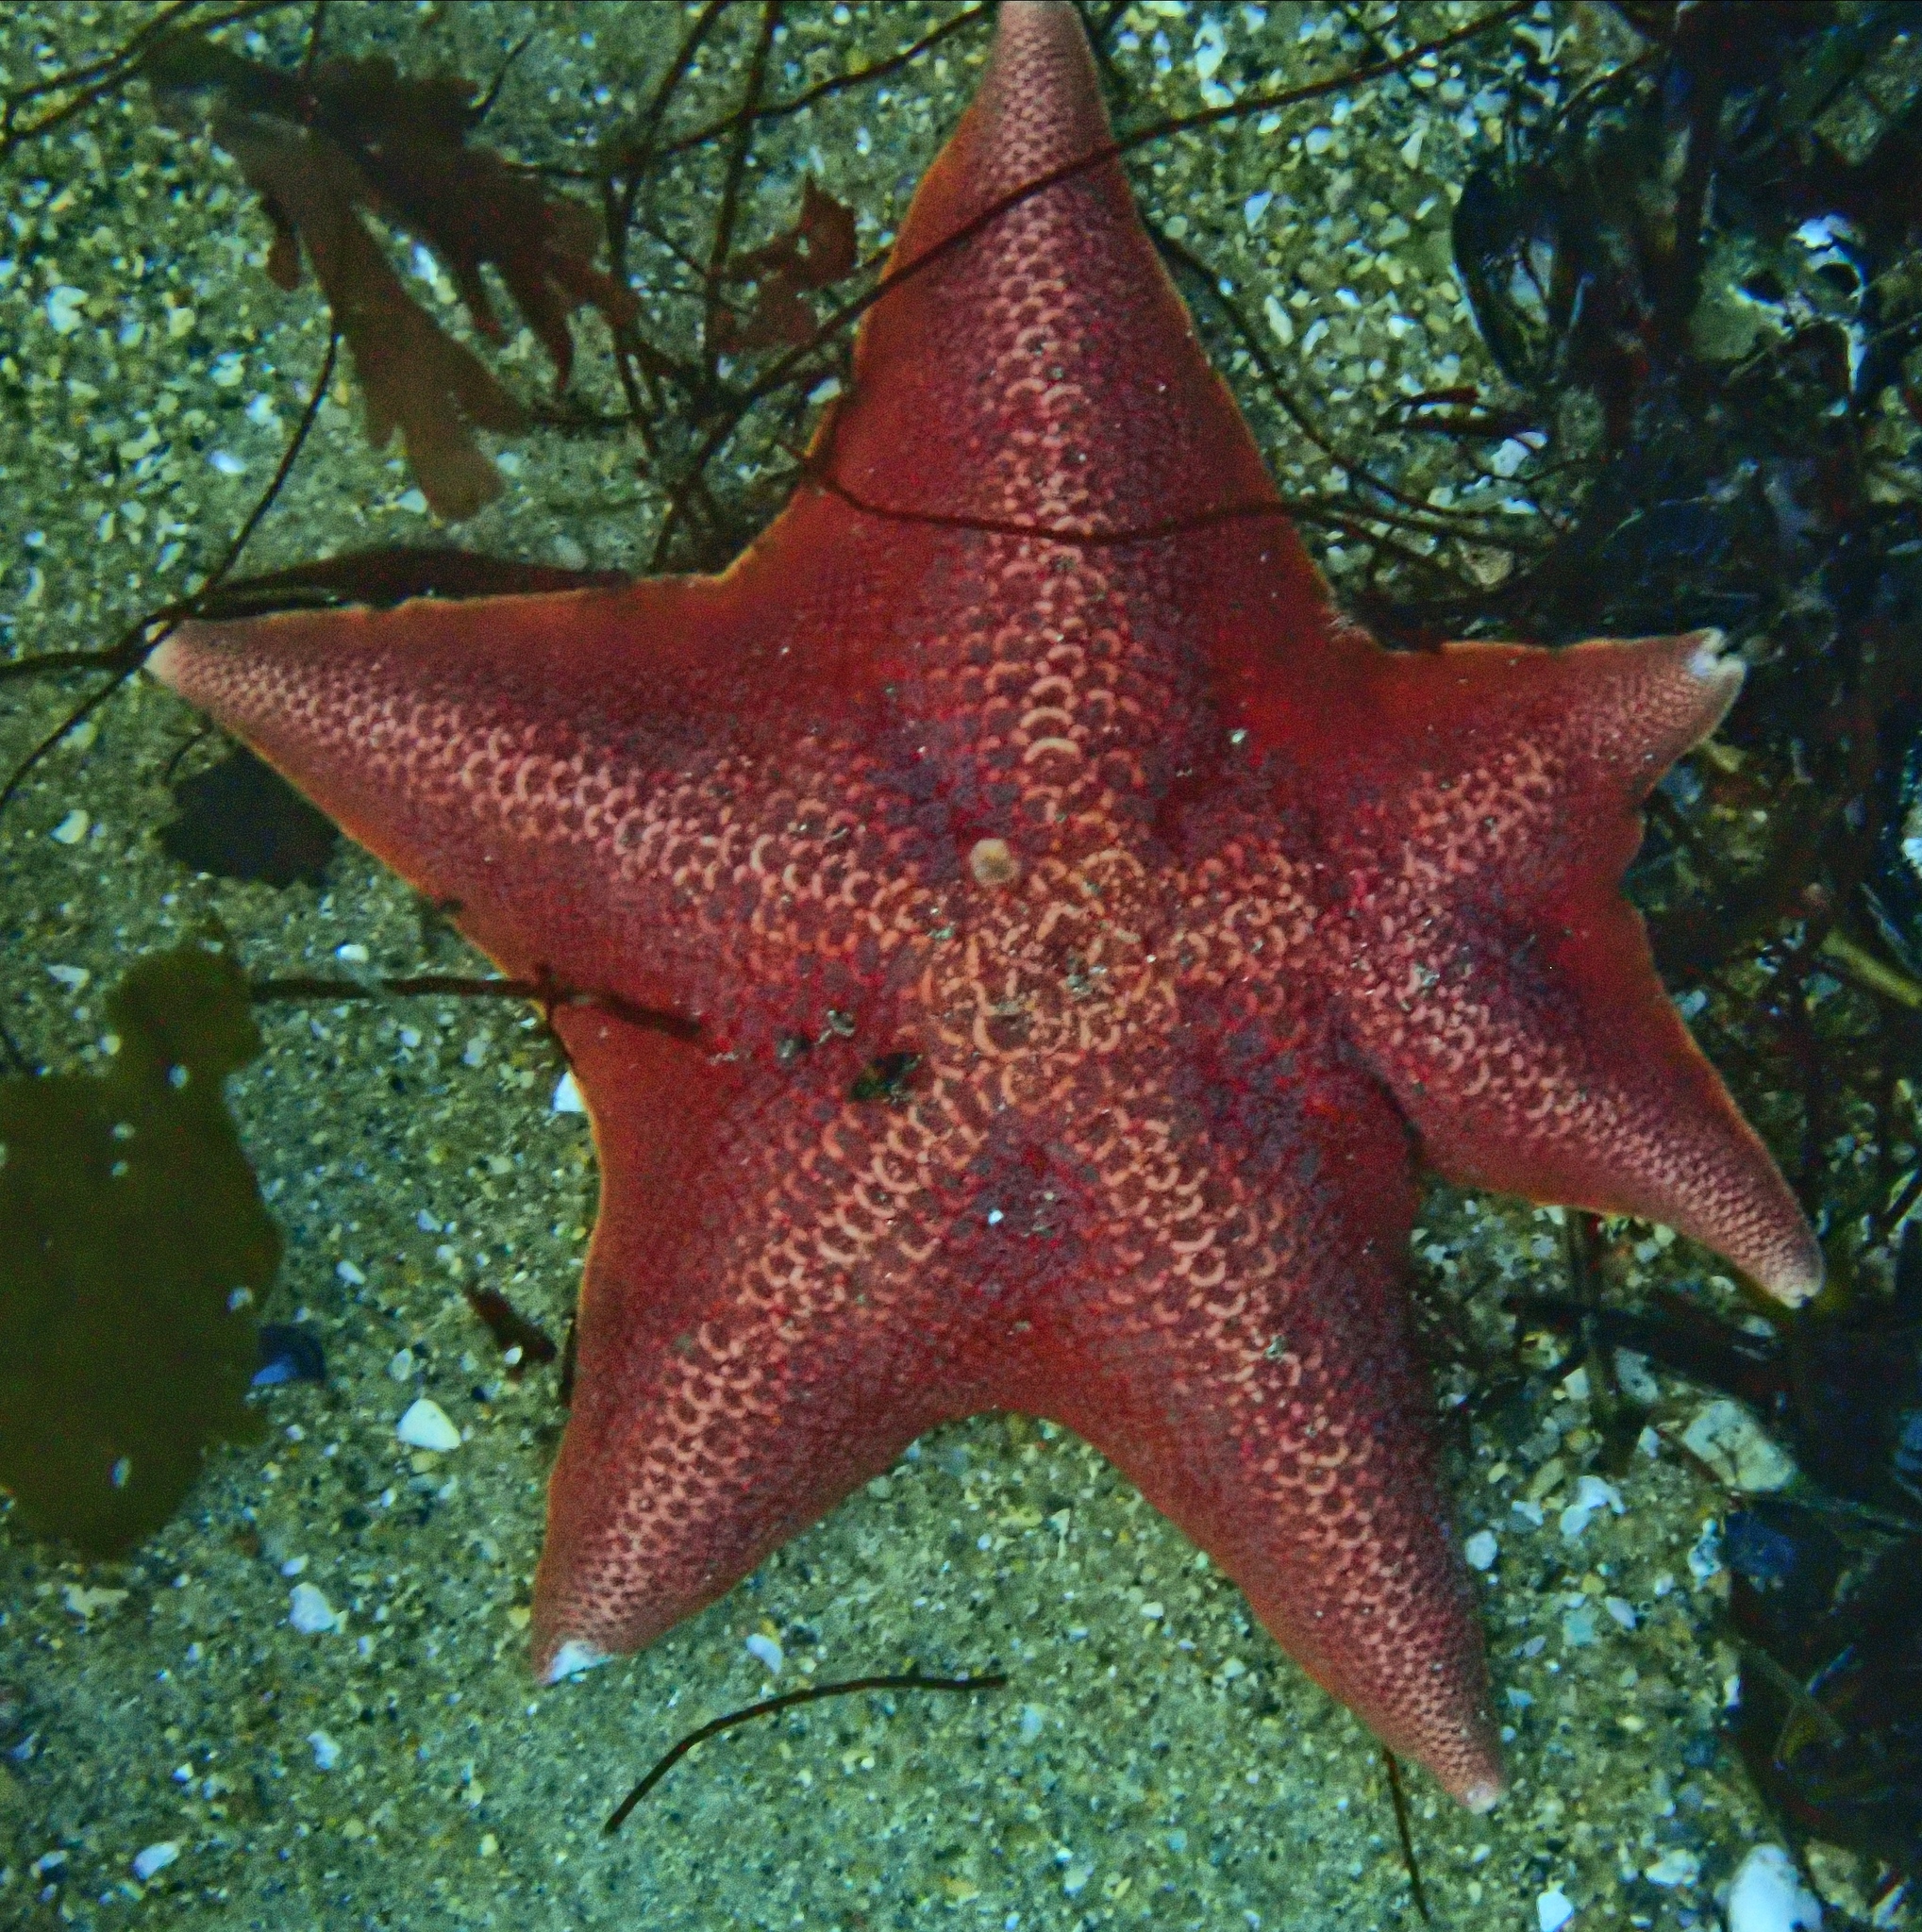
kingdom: Animalia
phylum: Echinodermata
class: Asteroidea
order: Valvatida
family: Asterinidae
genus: Patiria
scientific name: Patiria miniata
